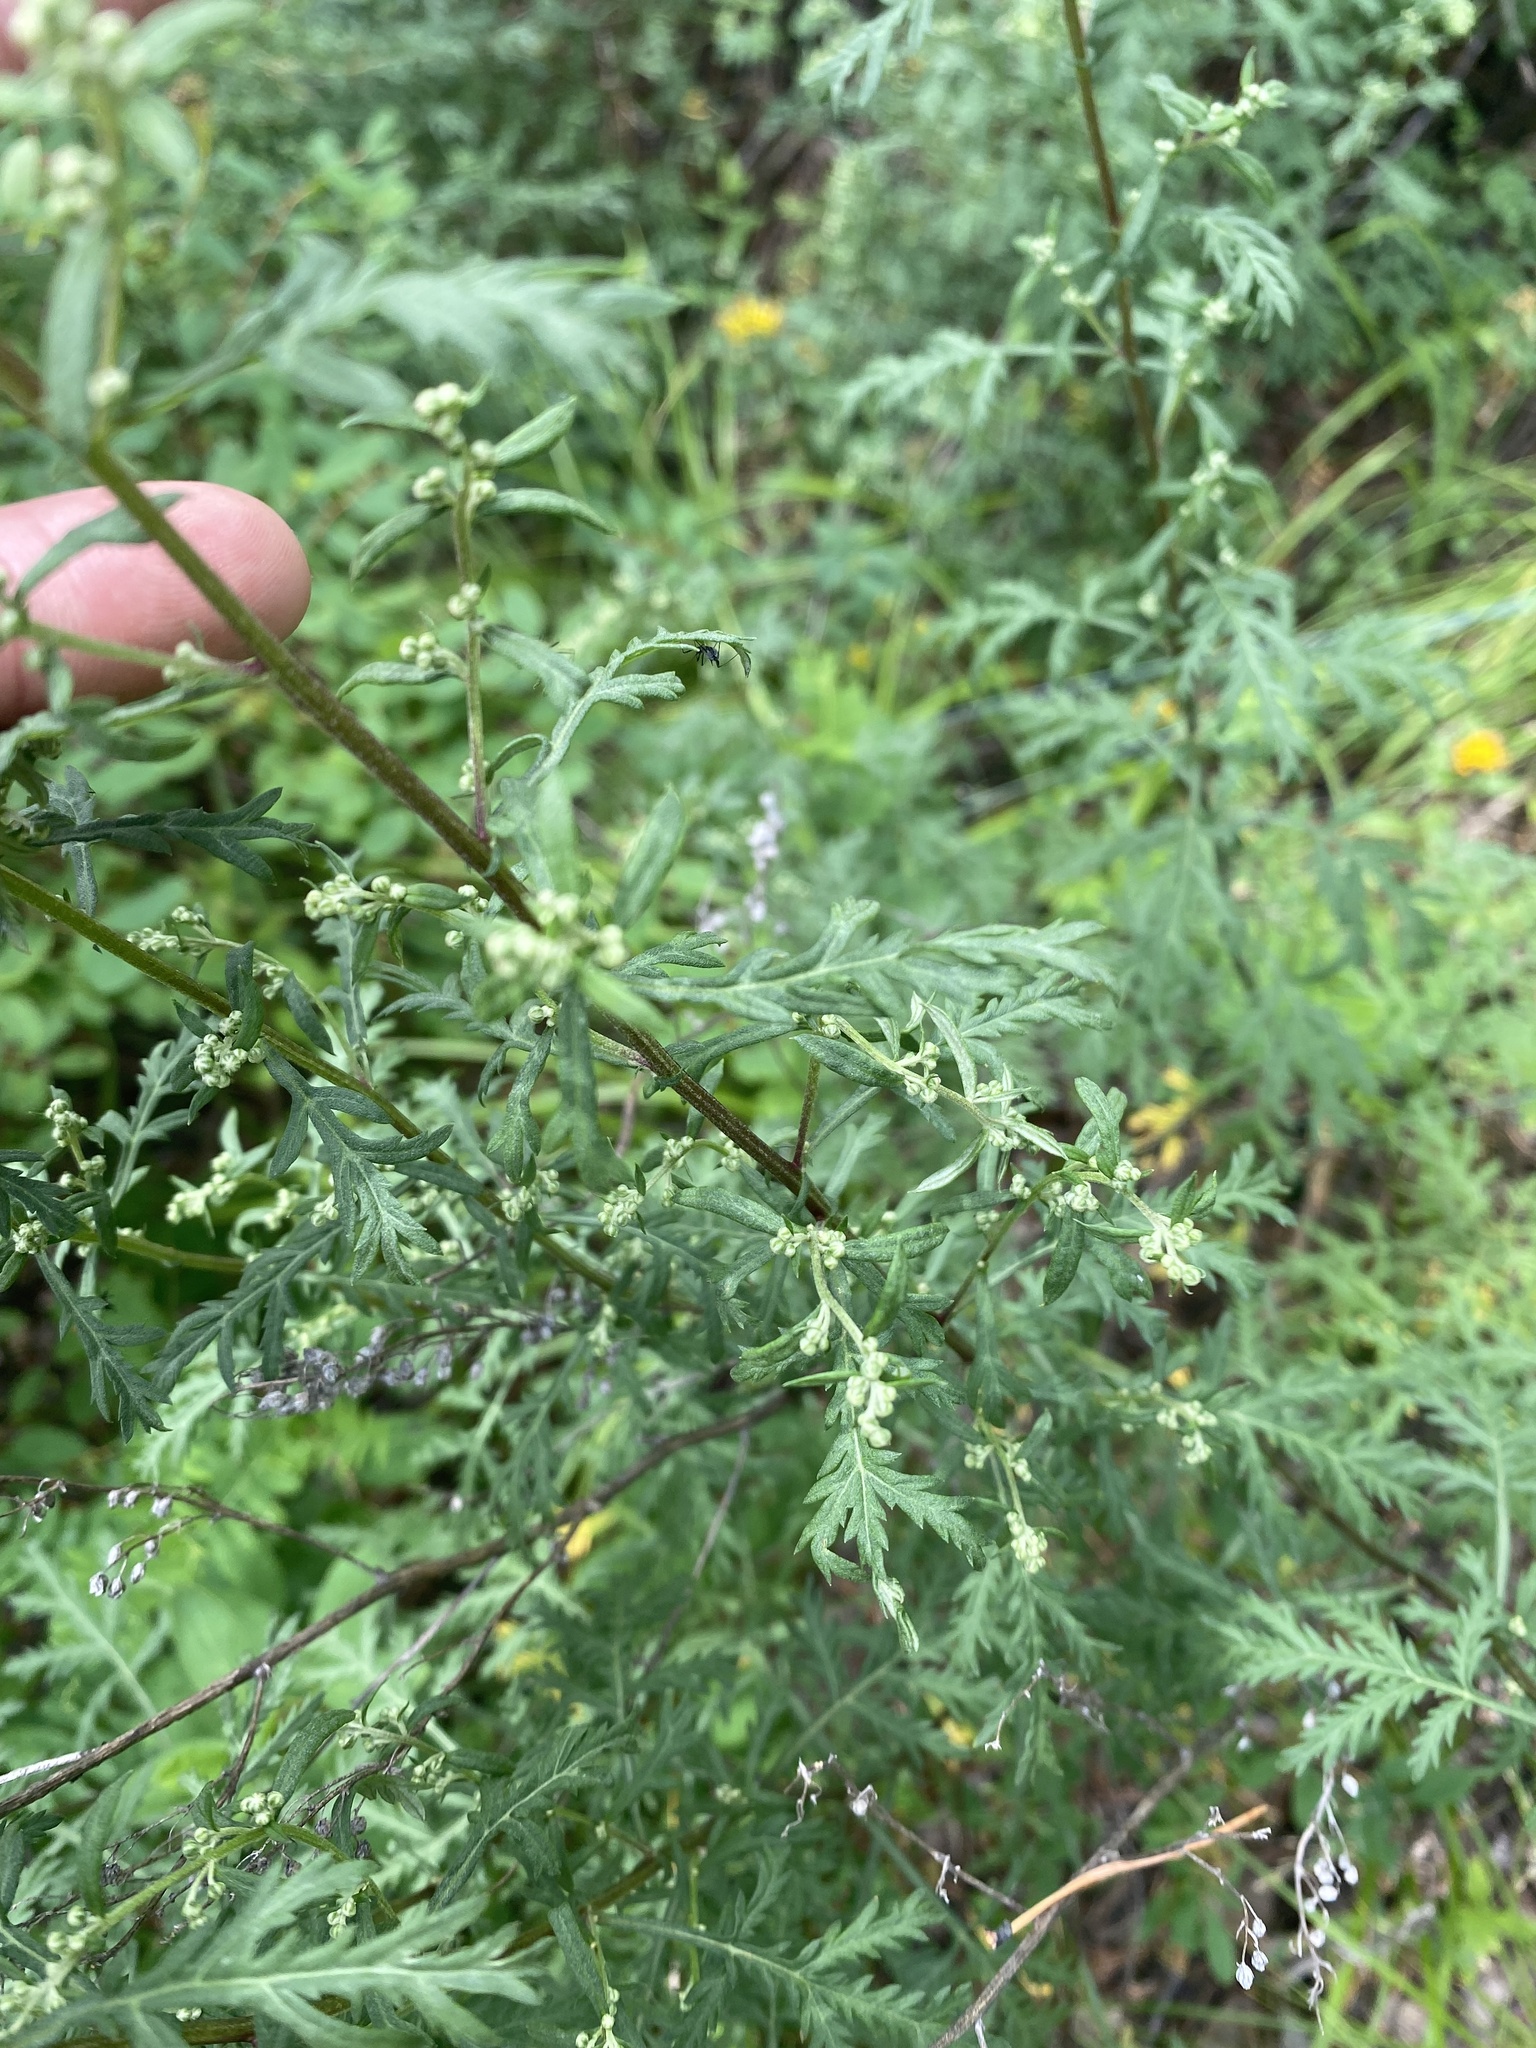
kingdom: Plantae
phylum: Tracheophyta
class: Magnoliopsida
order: Asterales
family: Asteraceae
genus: Artemisia
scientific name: Artemisia gmelinii
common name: Gmelin's wormwood
